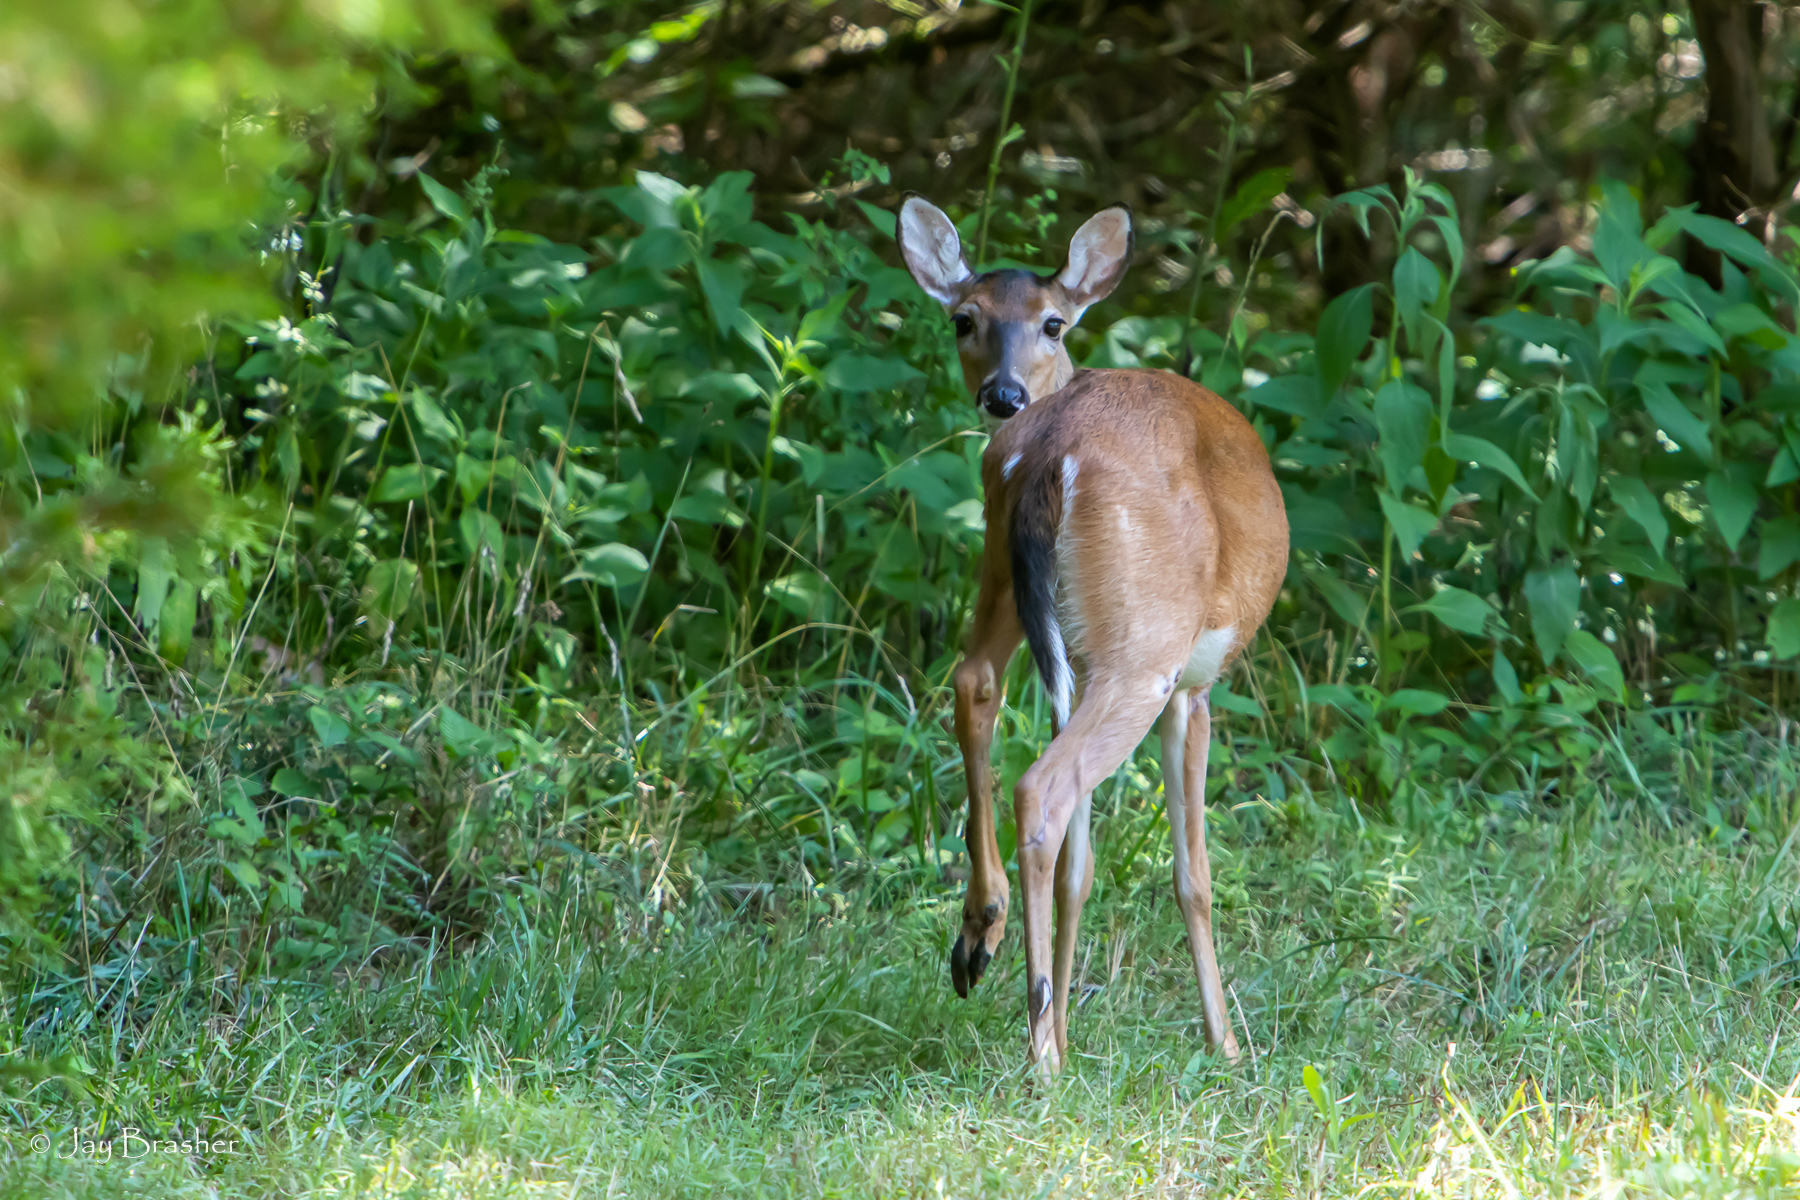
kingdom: Animalia
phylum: Chordata
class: Mammalia
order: Artiodactyla
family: Cervidae
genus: Odocoileus
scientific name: Odocoileus virginianus
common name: White-tailed deer
